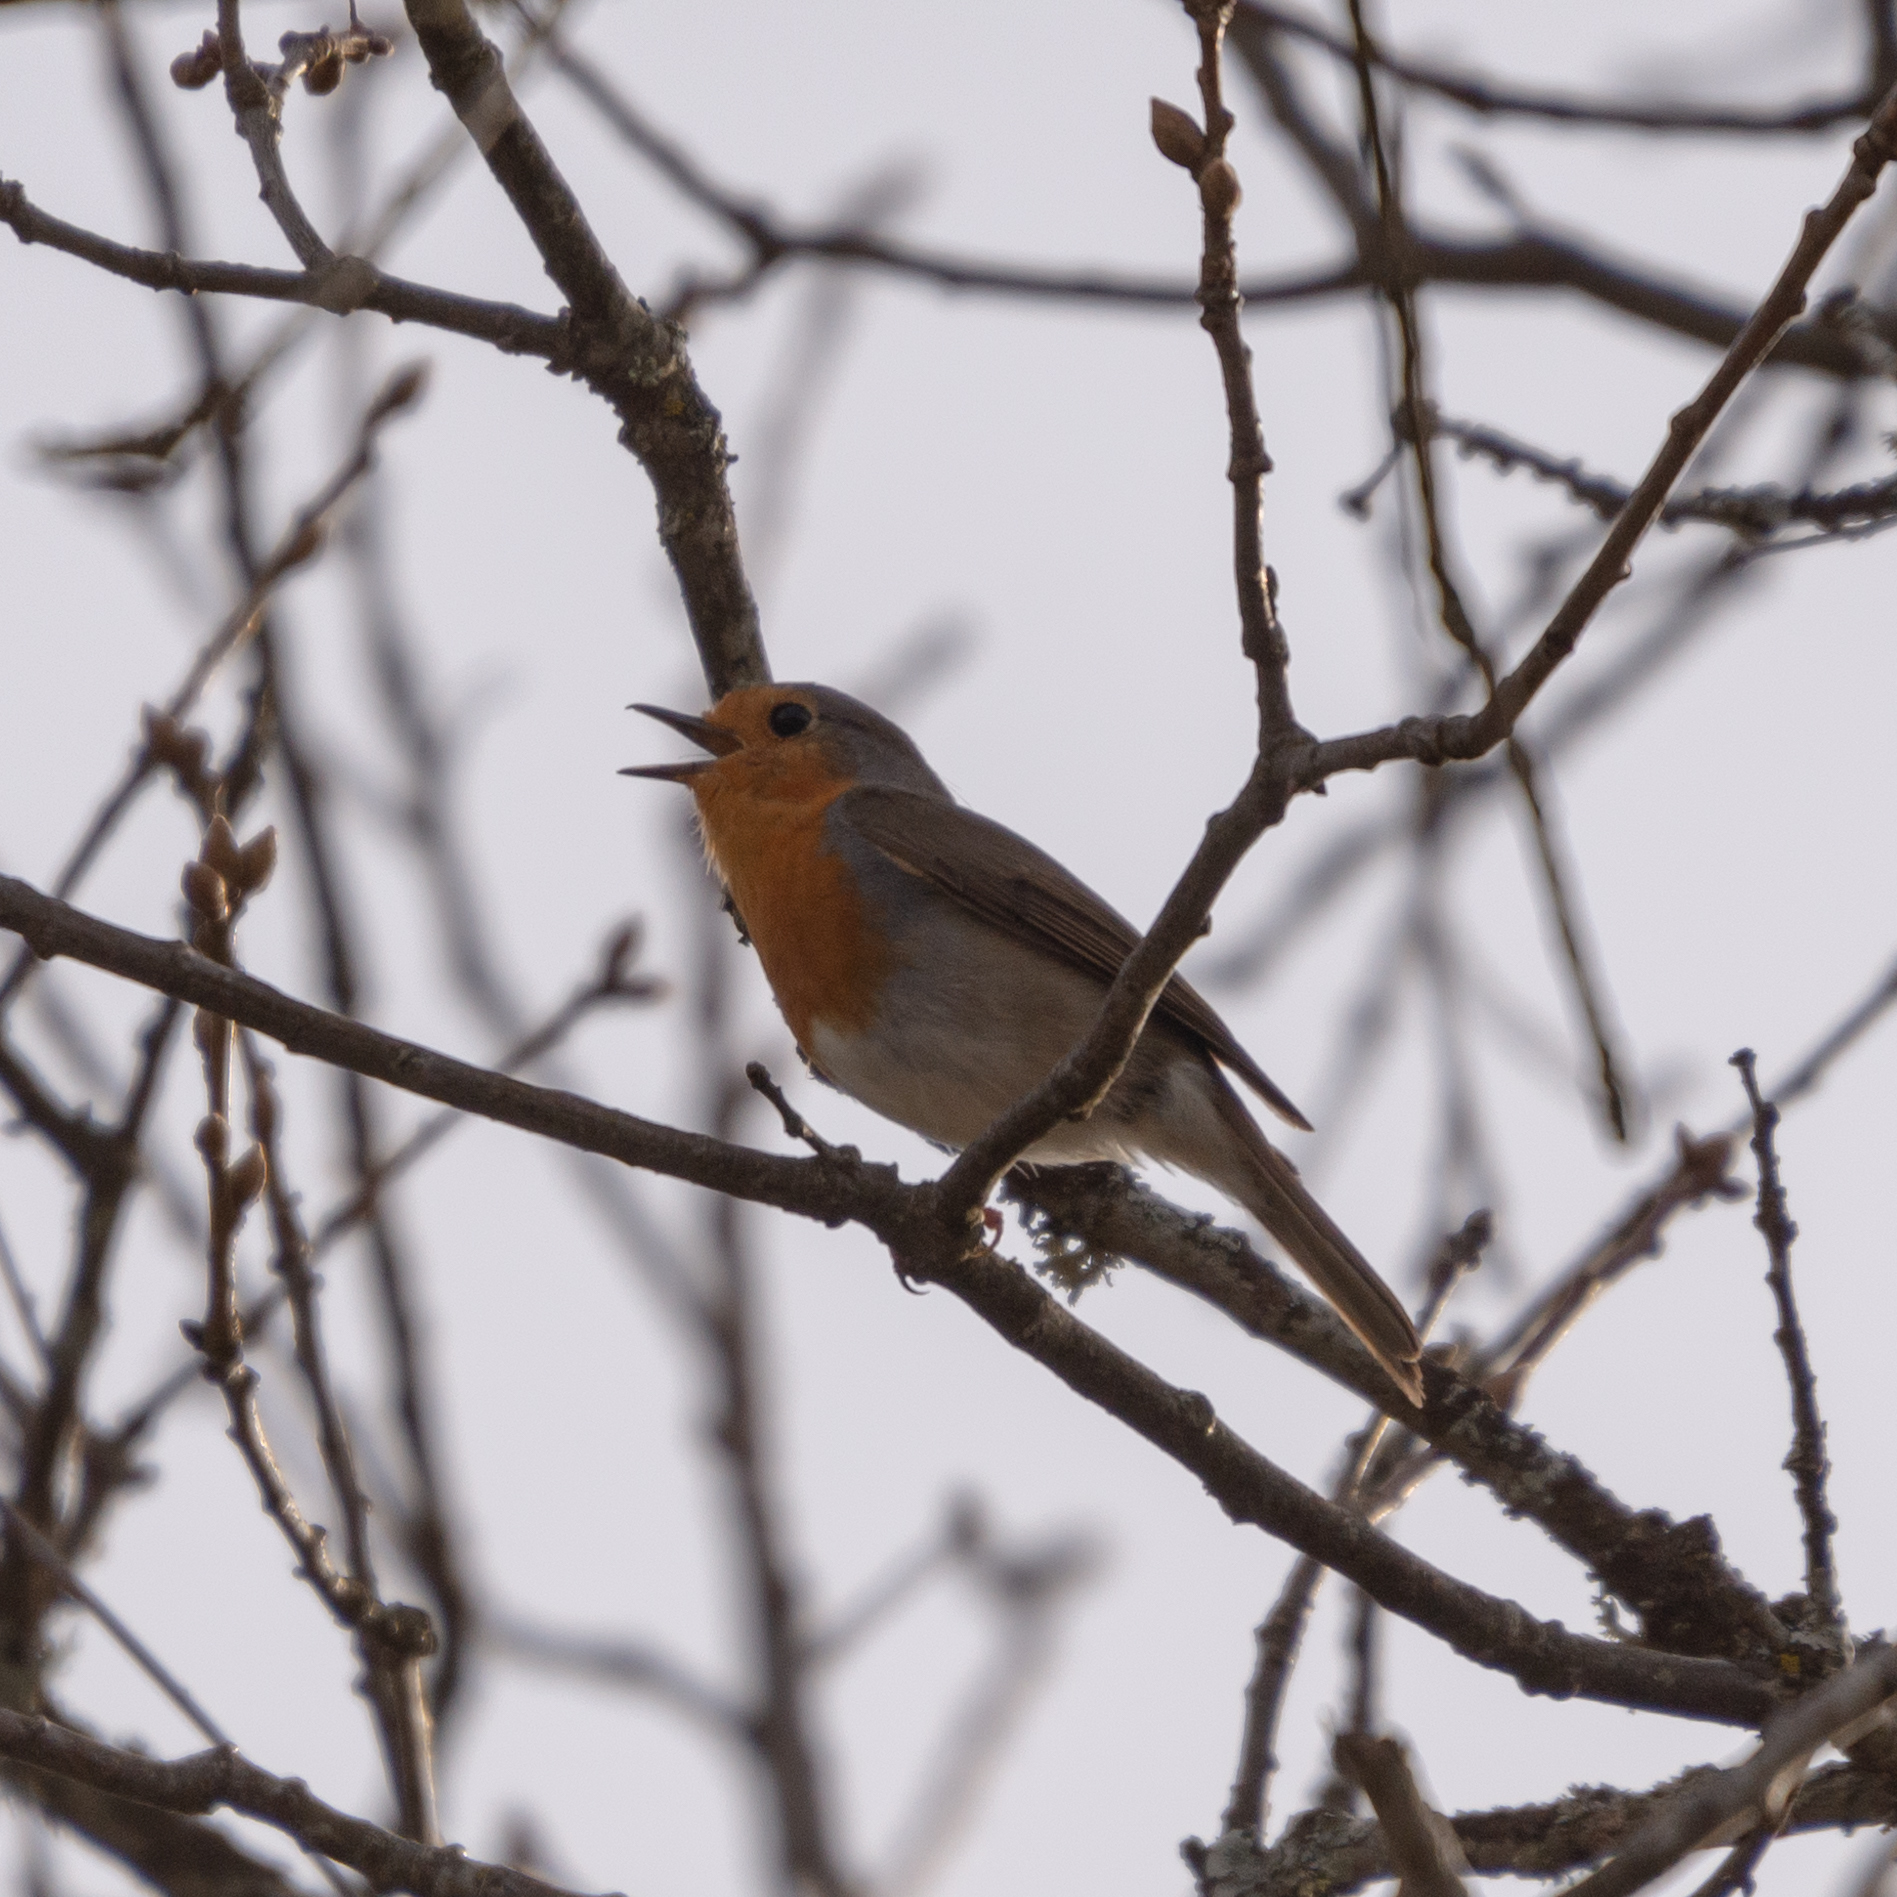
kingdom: Animalia
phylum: Chordata
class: Aves
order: Passeriformes
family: Muscicapidae
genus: Erithacus
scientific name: Erithacus rubecula
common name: European robin
